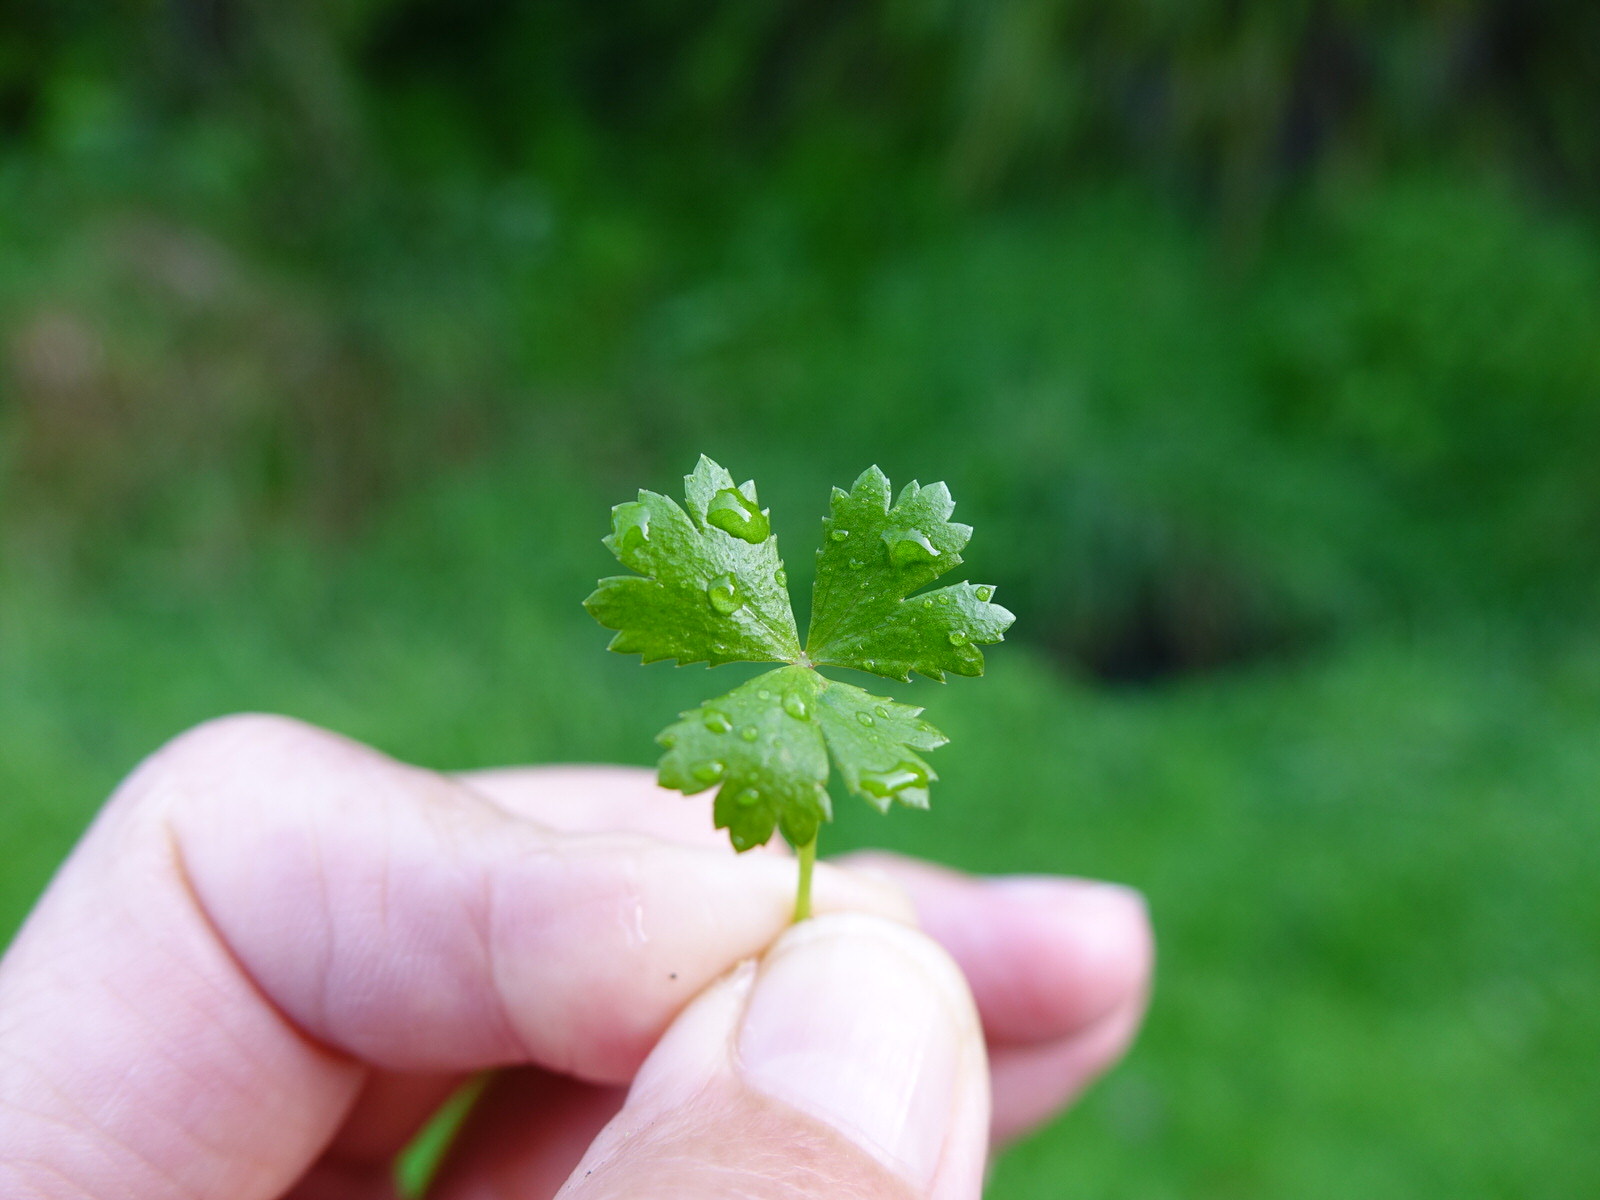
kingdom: Plantae
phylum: Tracheophyta
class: Magnoliopsida
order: Apiales
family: Araliaceae
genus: Hydrocotyle
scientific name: Hydrocotyle tripartita
